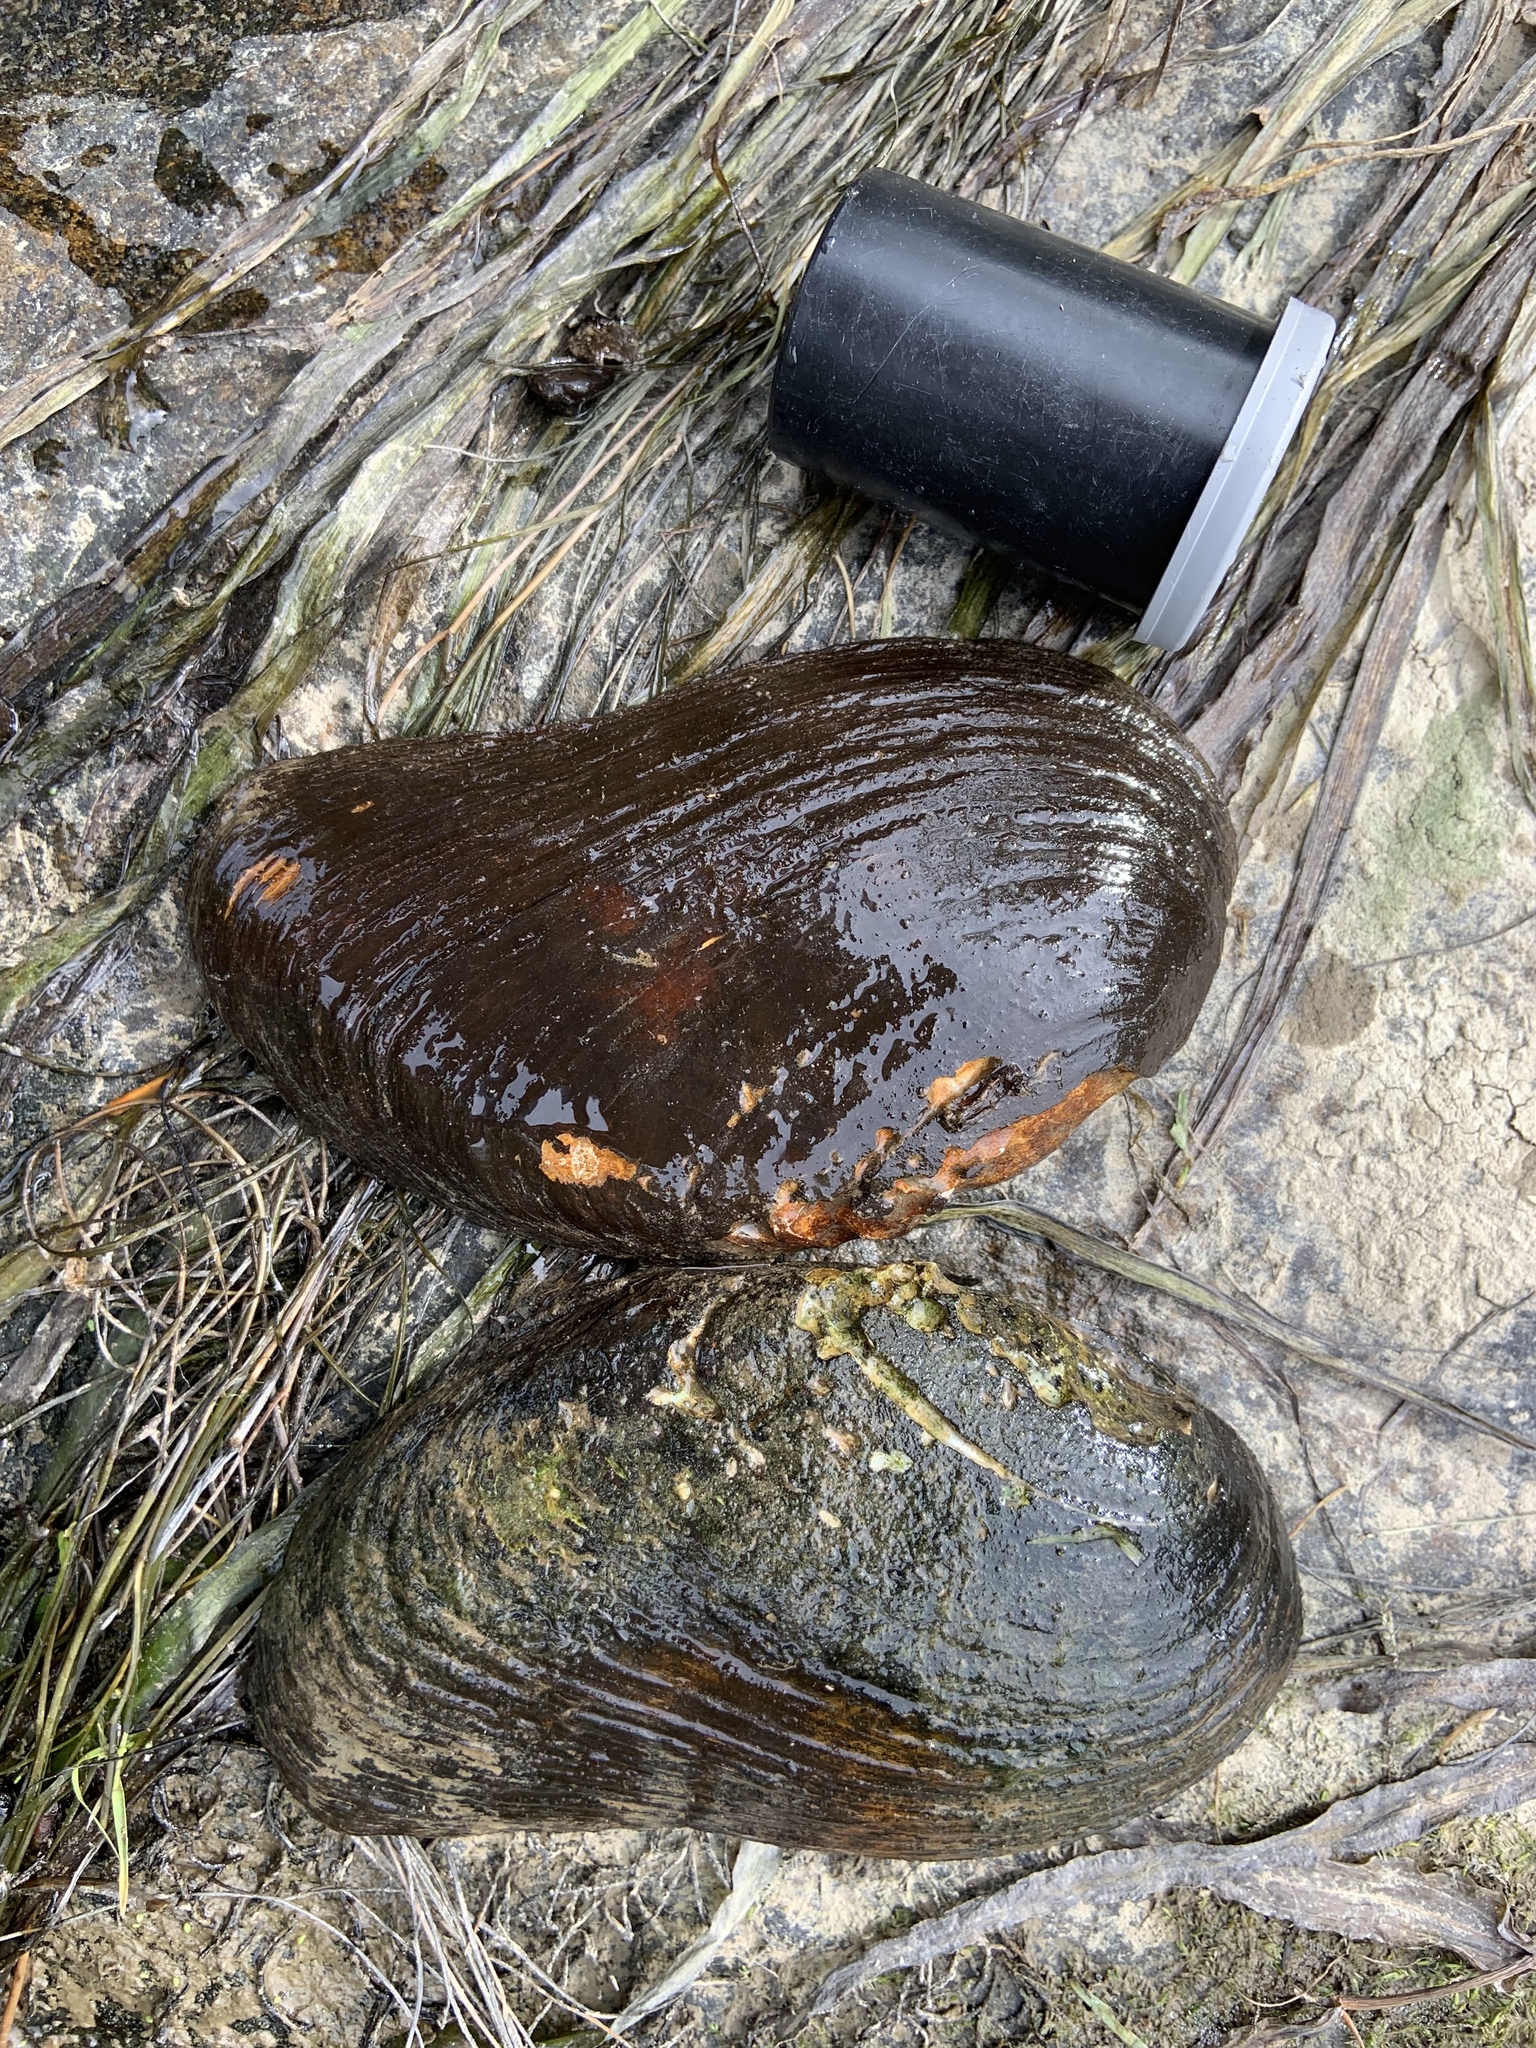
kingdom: Animalia
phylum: Mollusca
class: Bivalvia
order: Unionida
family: Unionidae
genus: Ptychobranchus
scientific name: Ptychobranchus fasciolaris
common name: Kidneyshell
